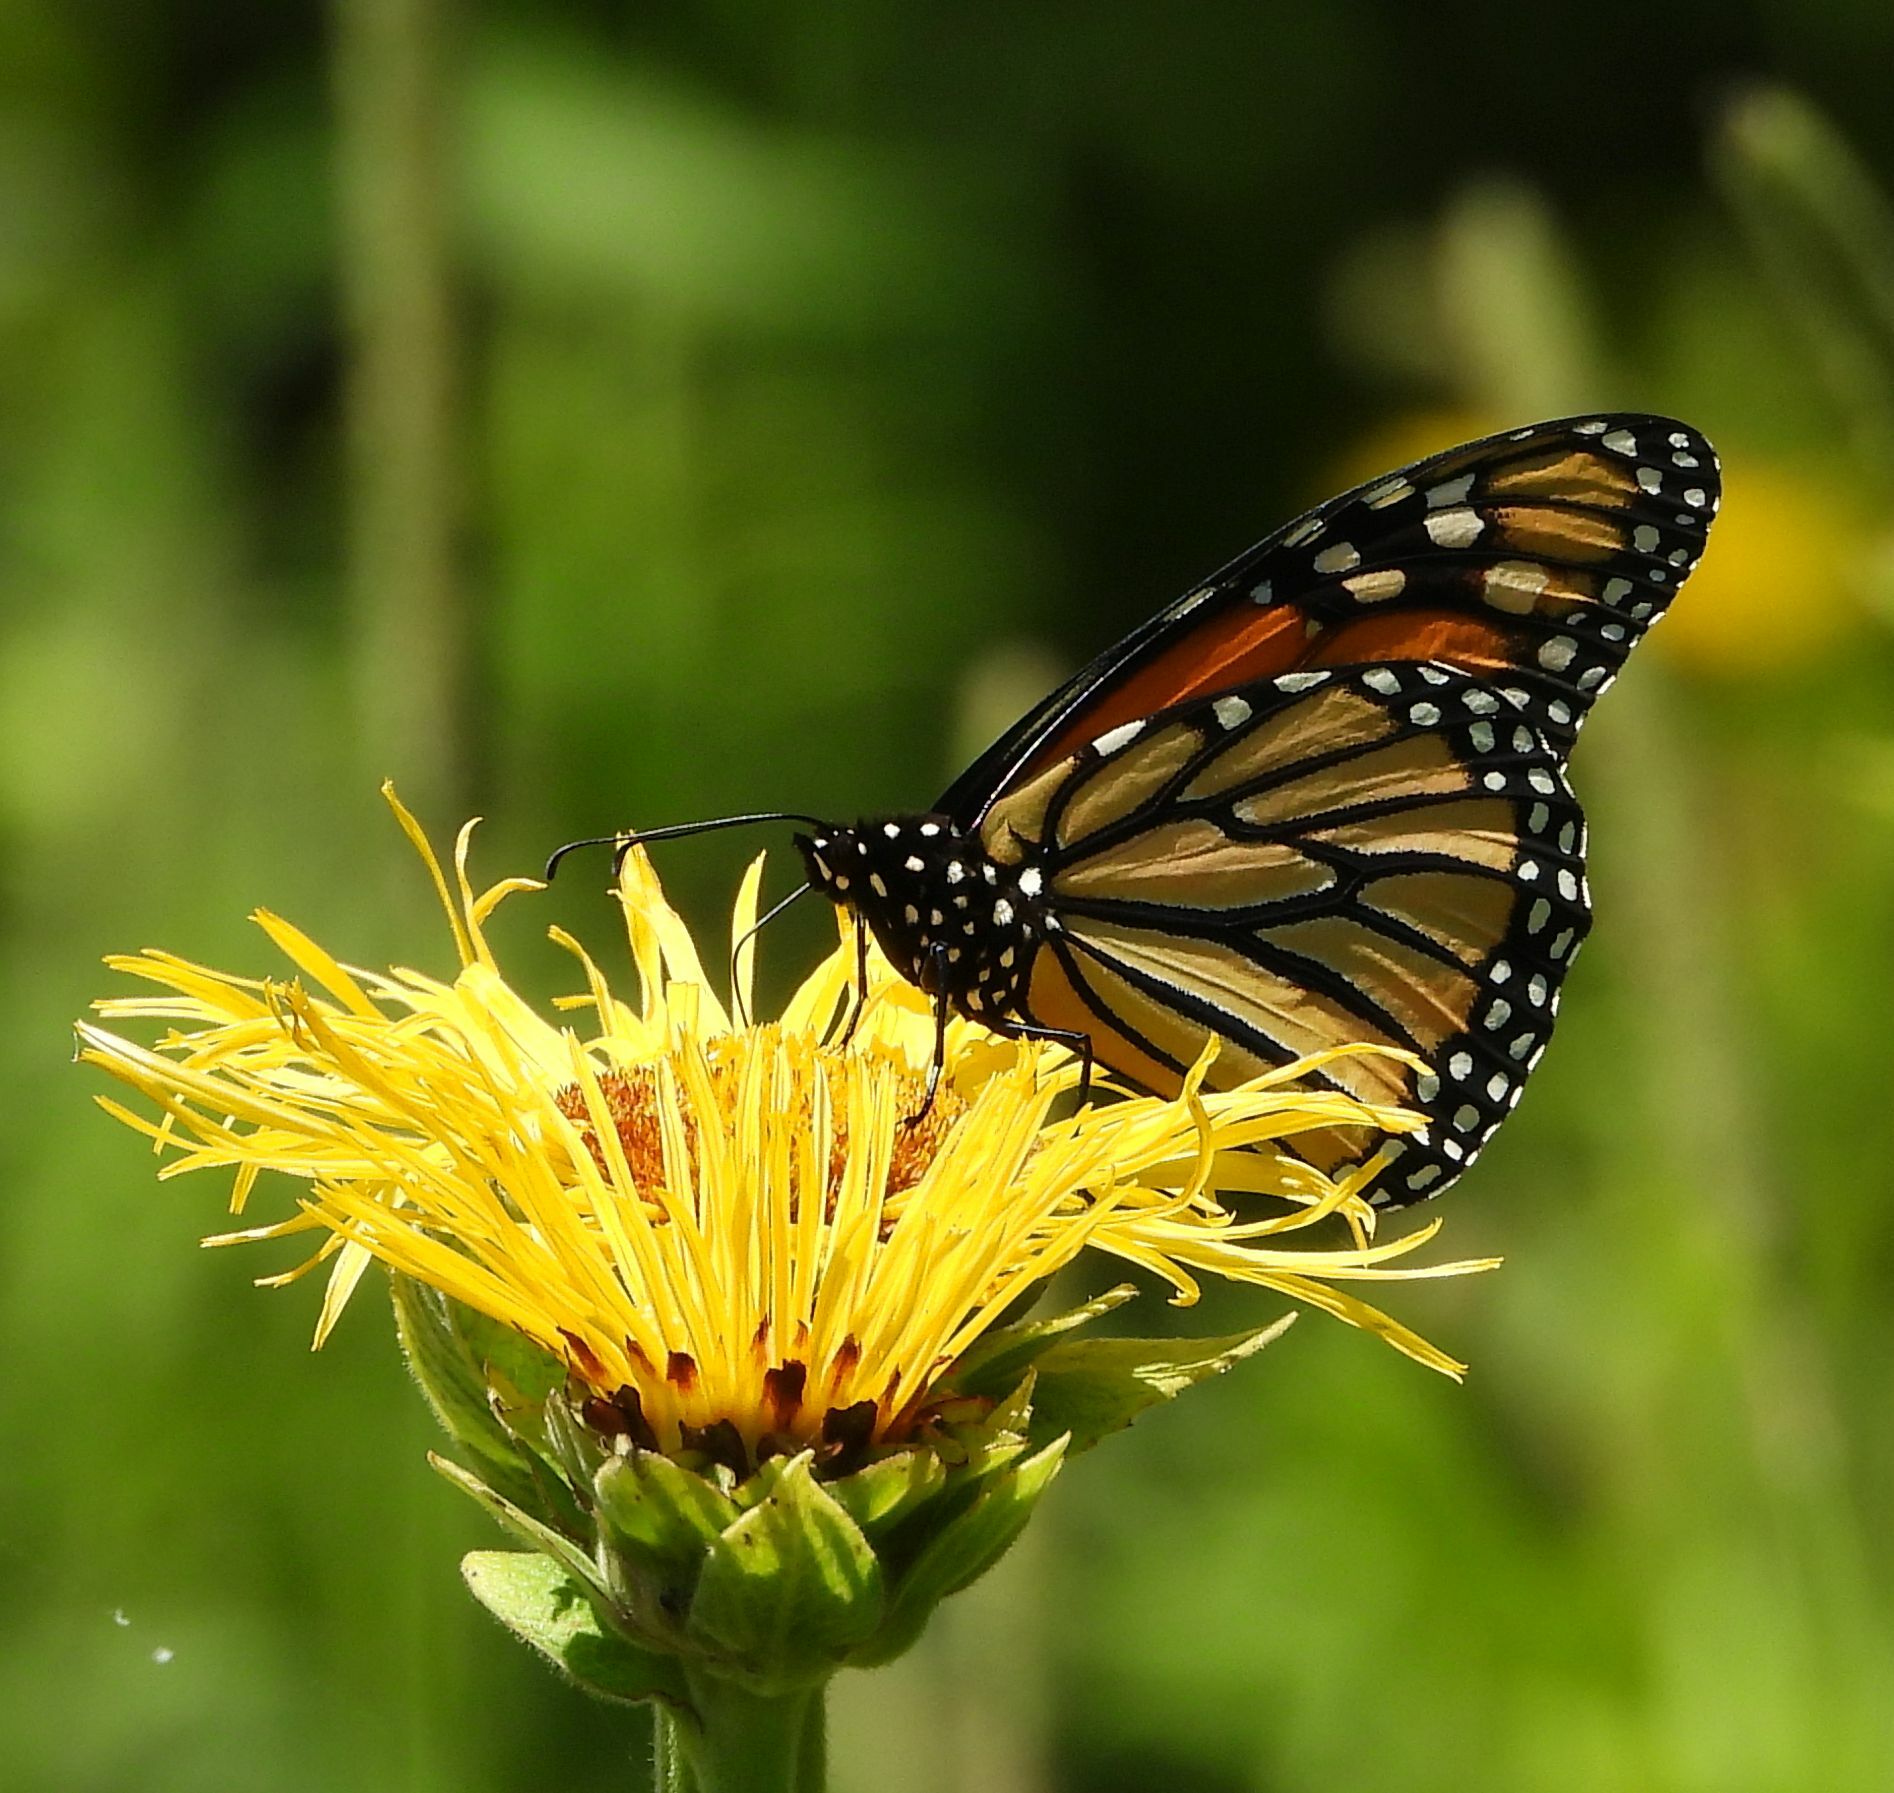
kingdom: Animalia
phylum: Arthropoda
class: Insecta
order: Lepidoptera
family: Nymphalidae
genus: Danaus
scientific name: Danaus plexippus
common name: Monarch
